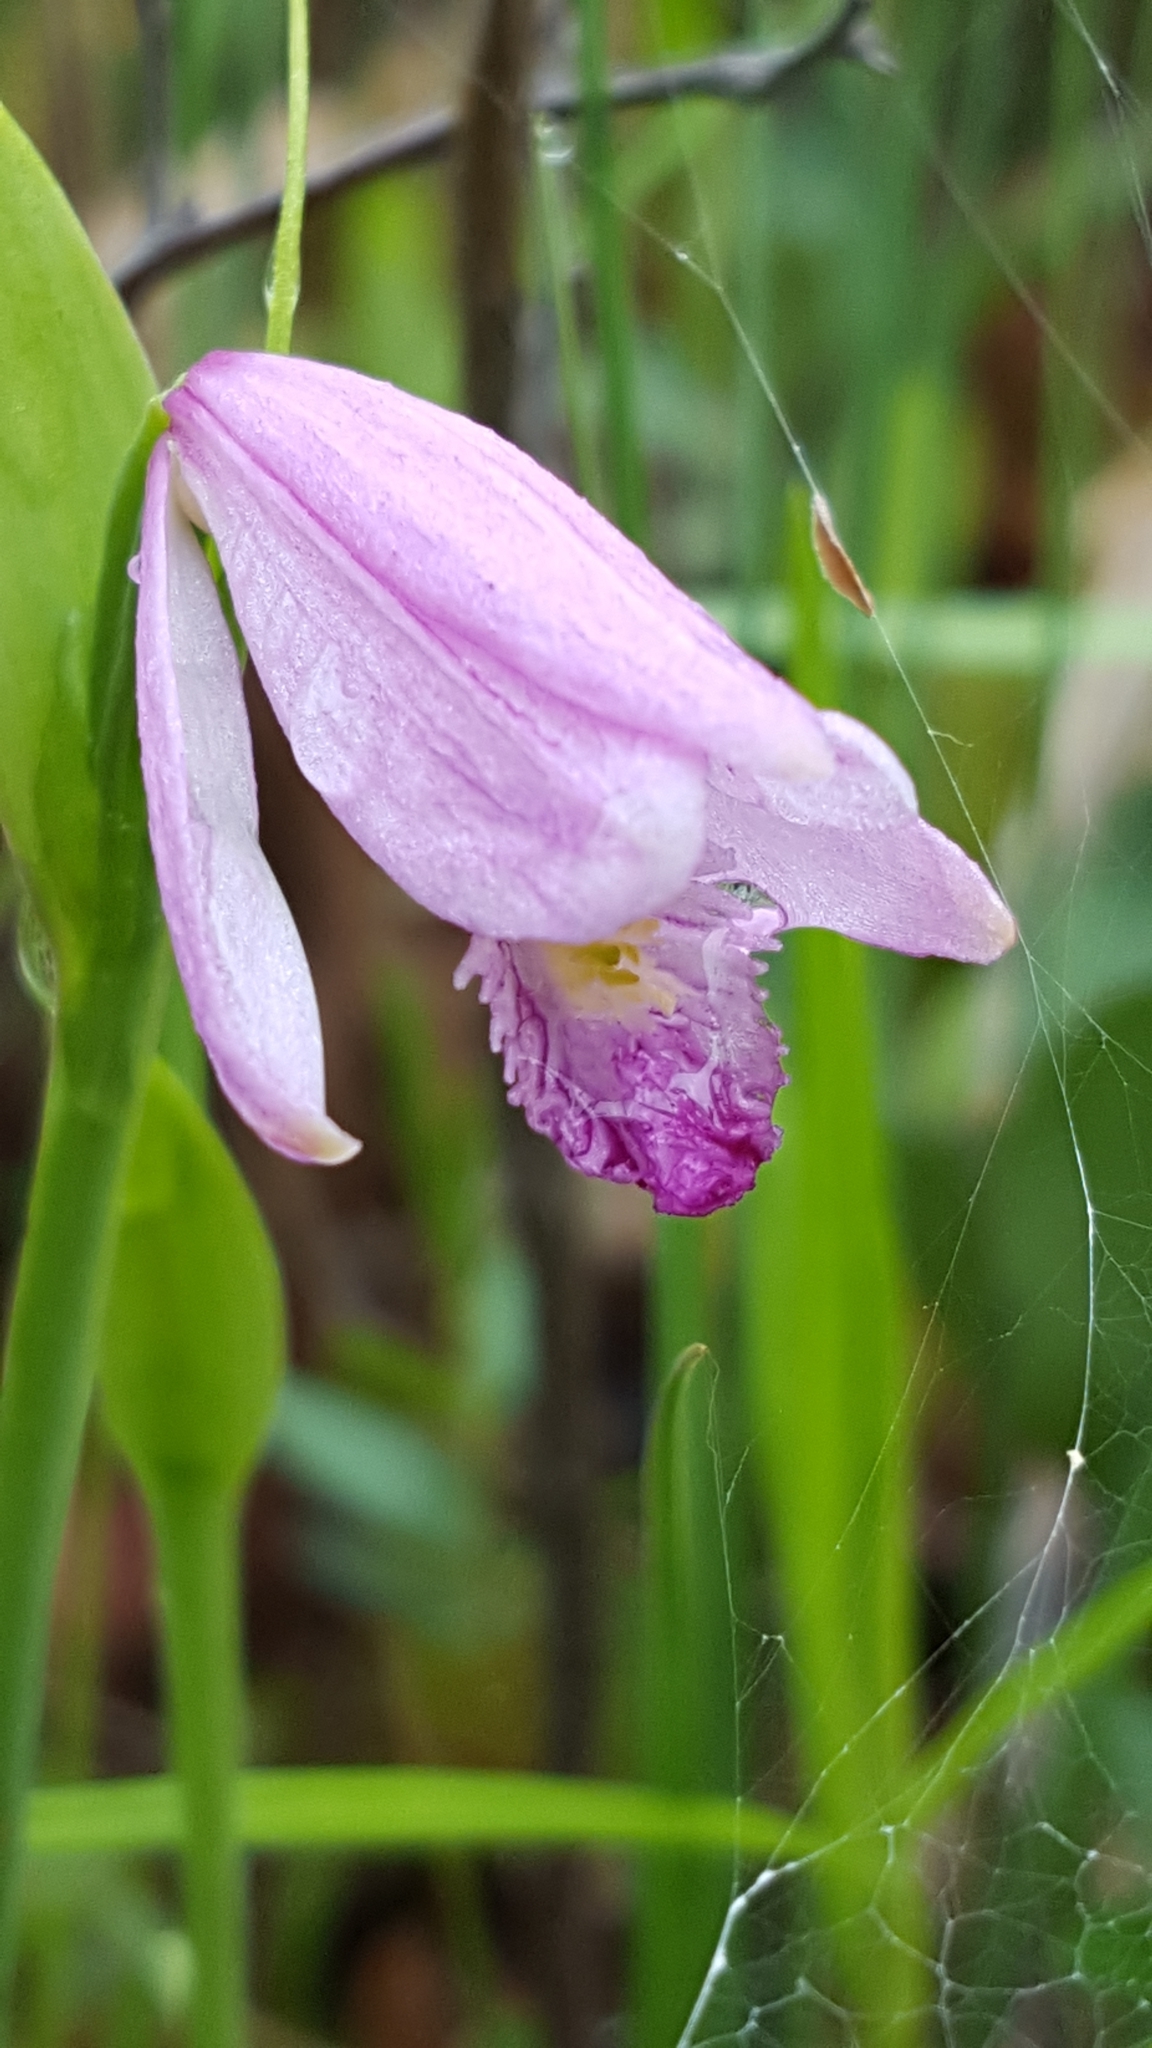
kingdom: Plantae
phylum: Tracheophyta
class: Liliopsida
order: Asparagales
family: Orchidaceae
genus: Pogonia
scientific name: Pogonia ophioglossoides
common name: Rose pogonia
